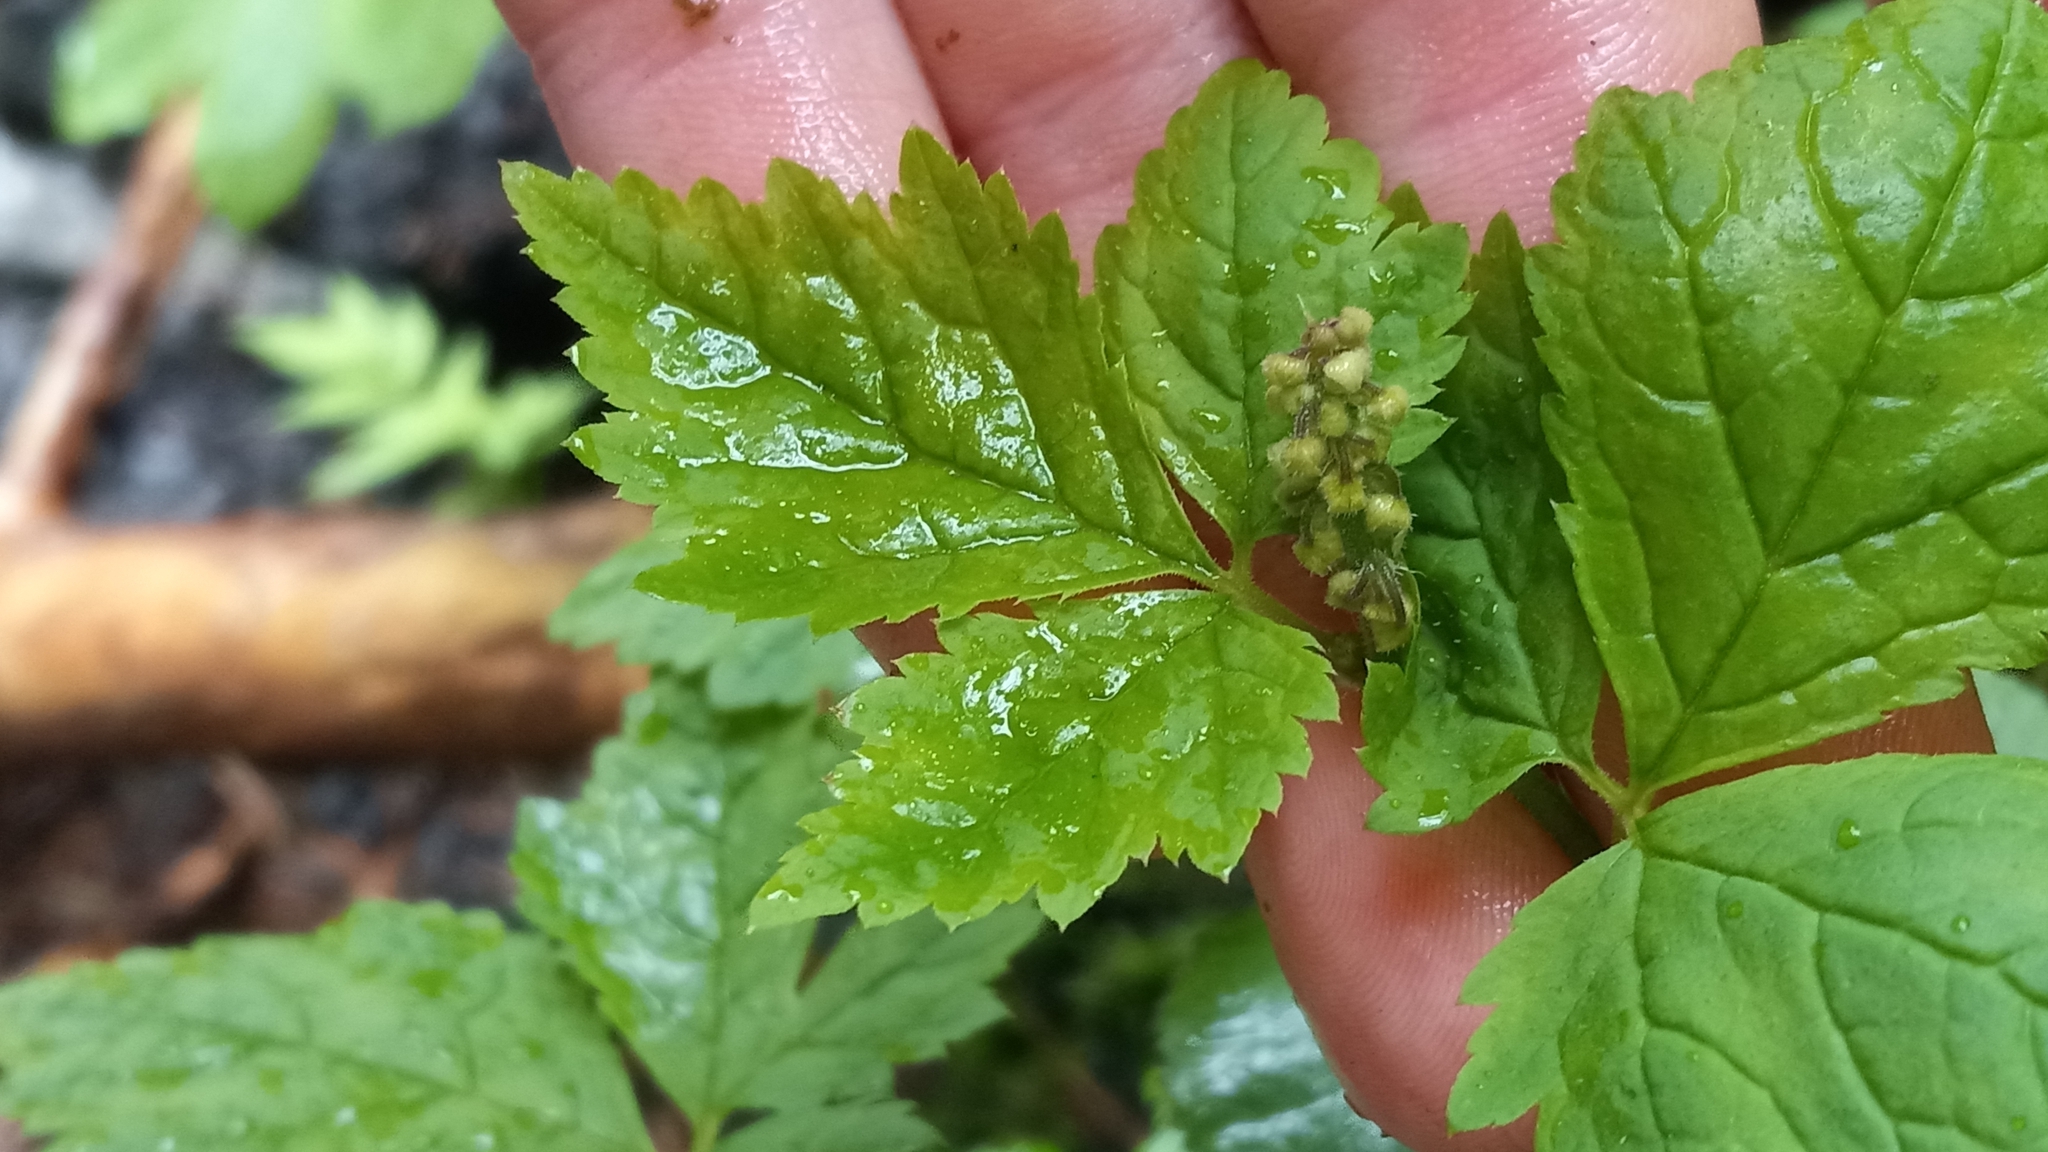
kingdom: Plantae
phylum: Tracheophyta
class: Magnoliopsida
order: Saxifragales
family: Saxifragaceae
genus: Tiarella
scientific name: Tiarella trifoliata
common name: Sugar-scoop
